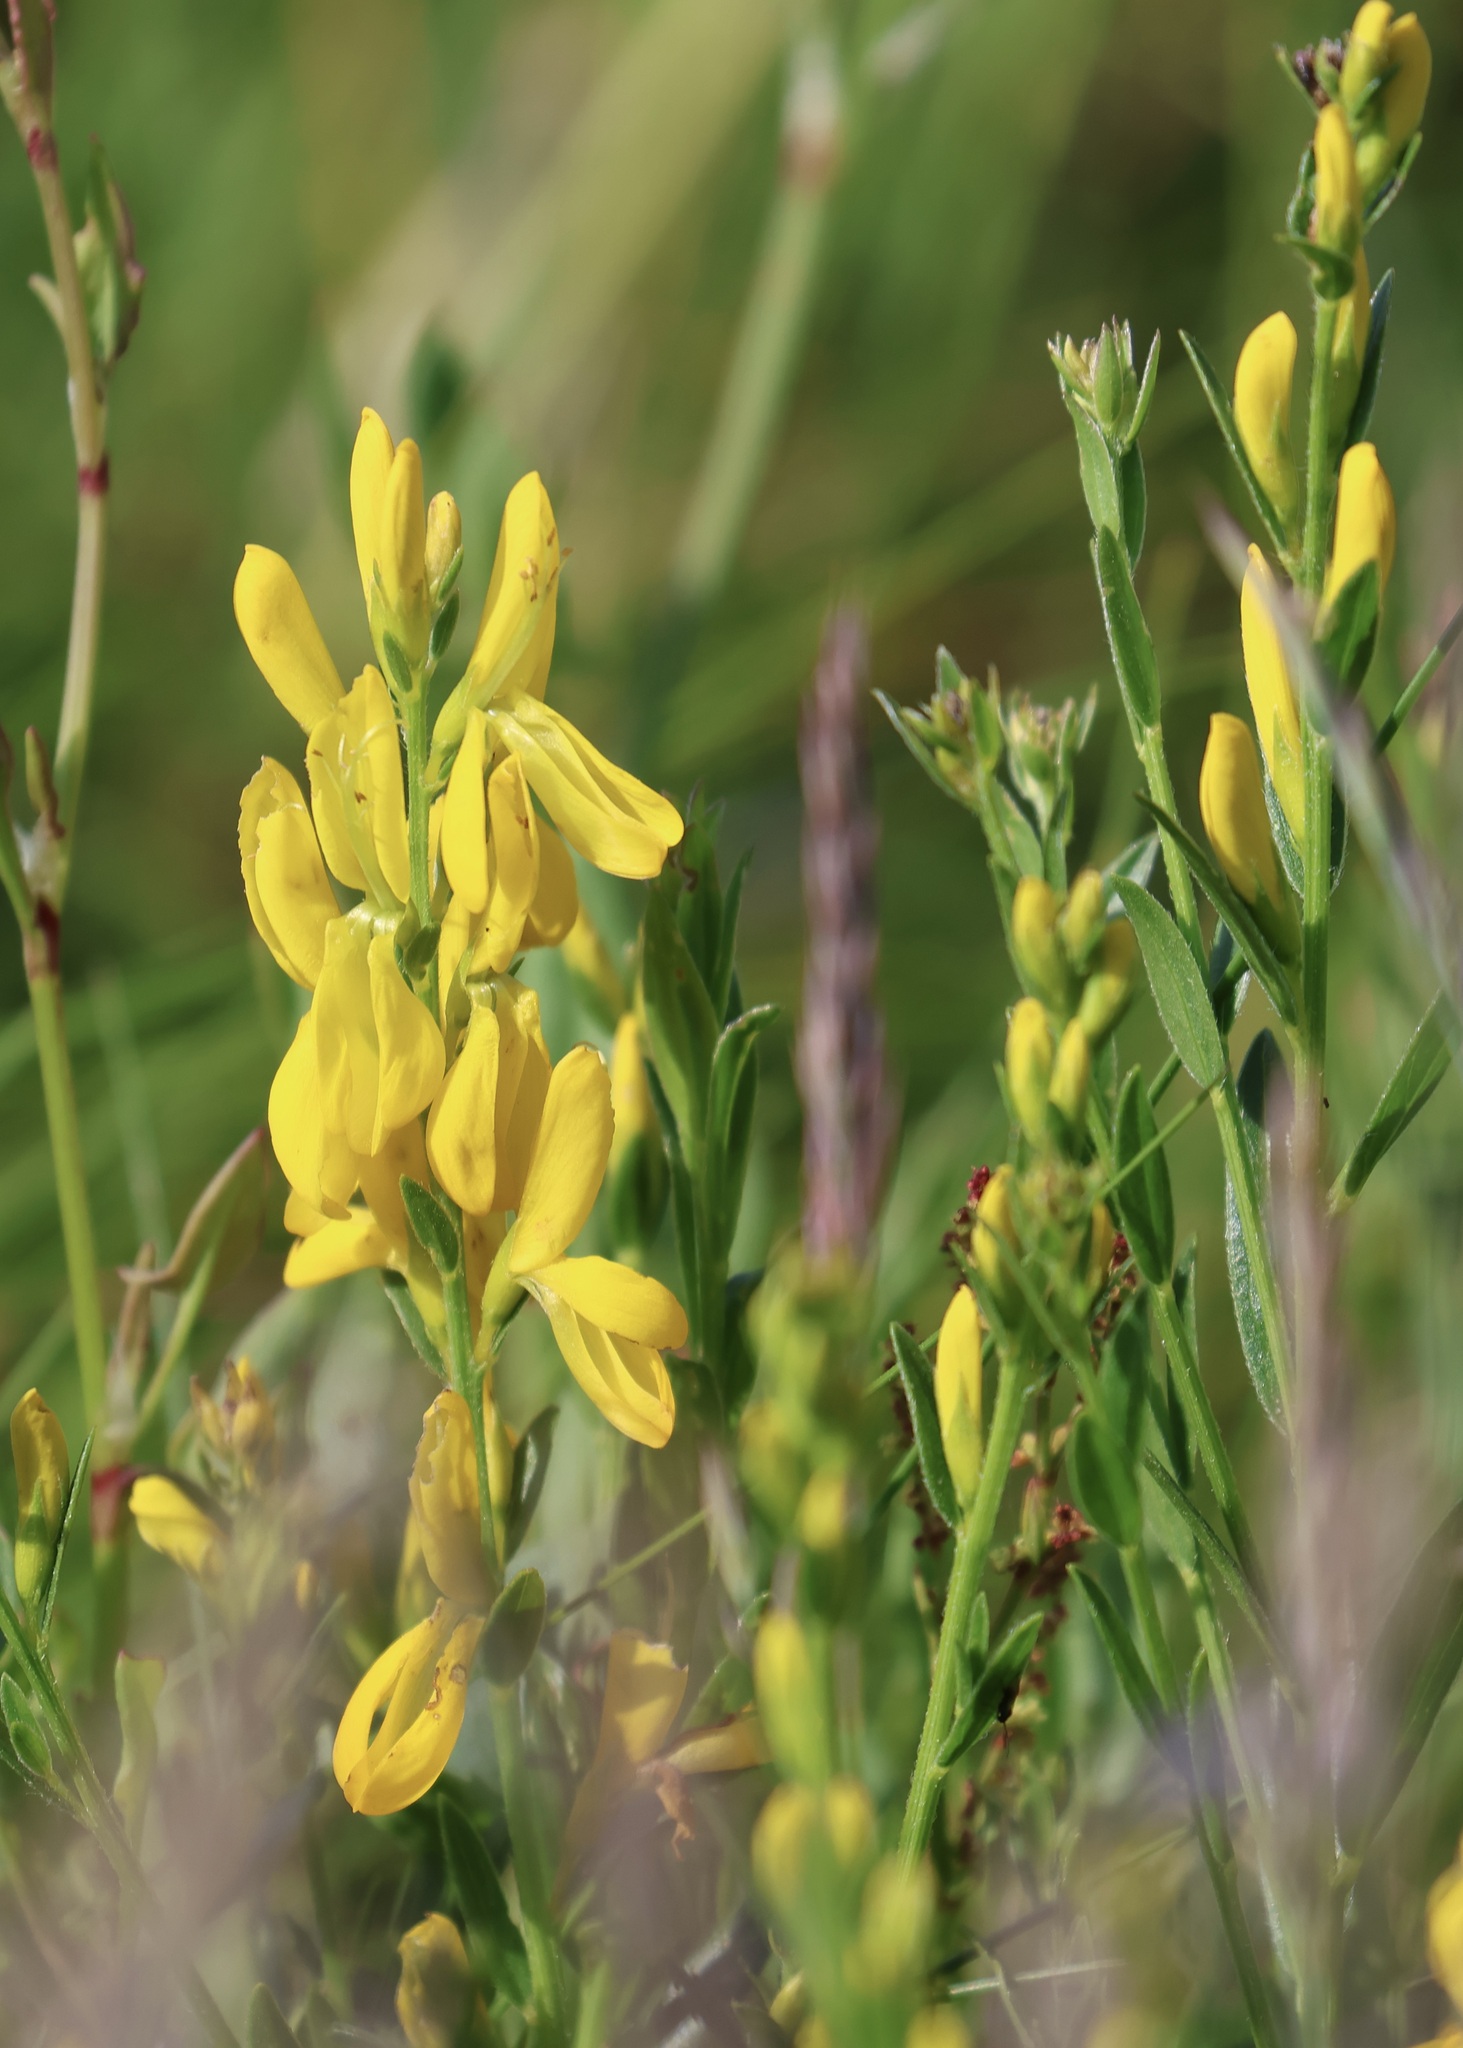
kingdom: Plantae
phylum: Tracheophyta
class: Magnoliopsida
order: Fabales
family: Fabaceae
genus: Genista
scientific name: Genista tinctoria
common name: Dyer's greenweed
